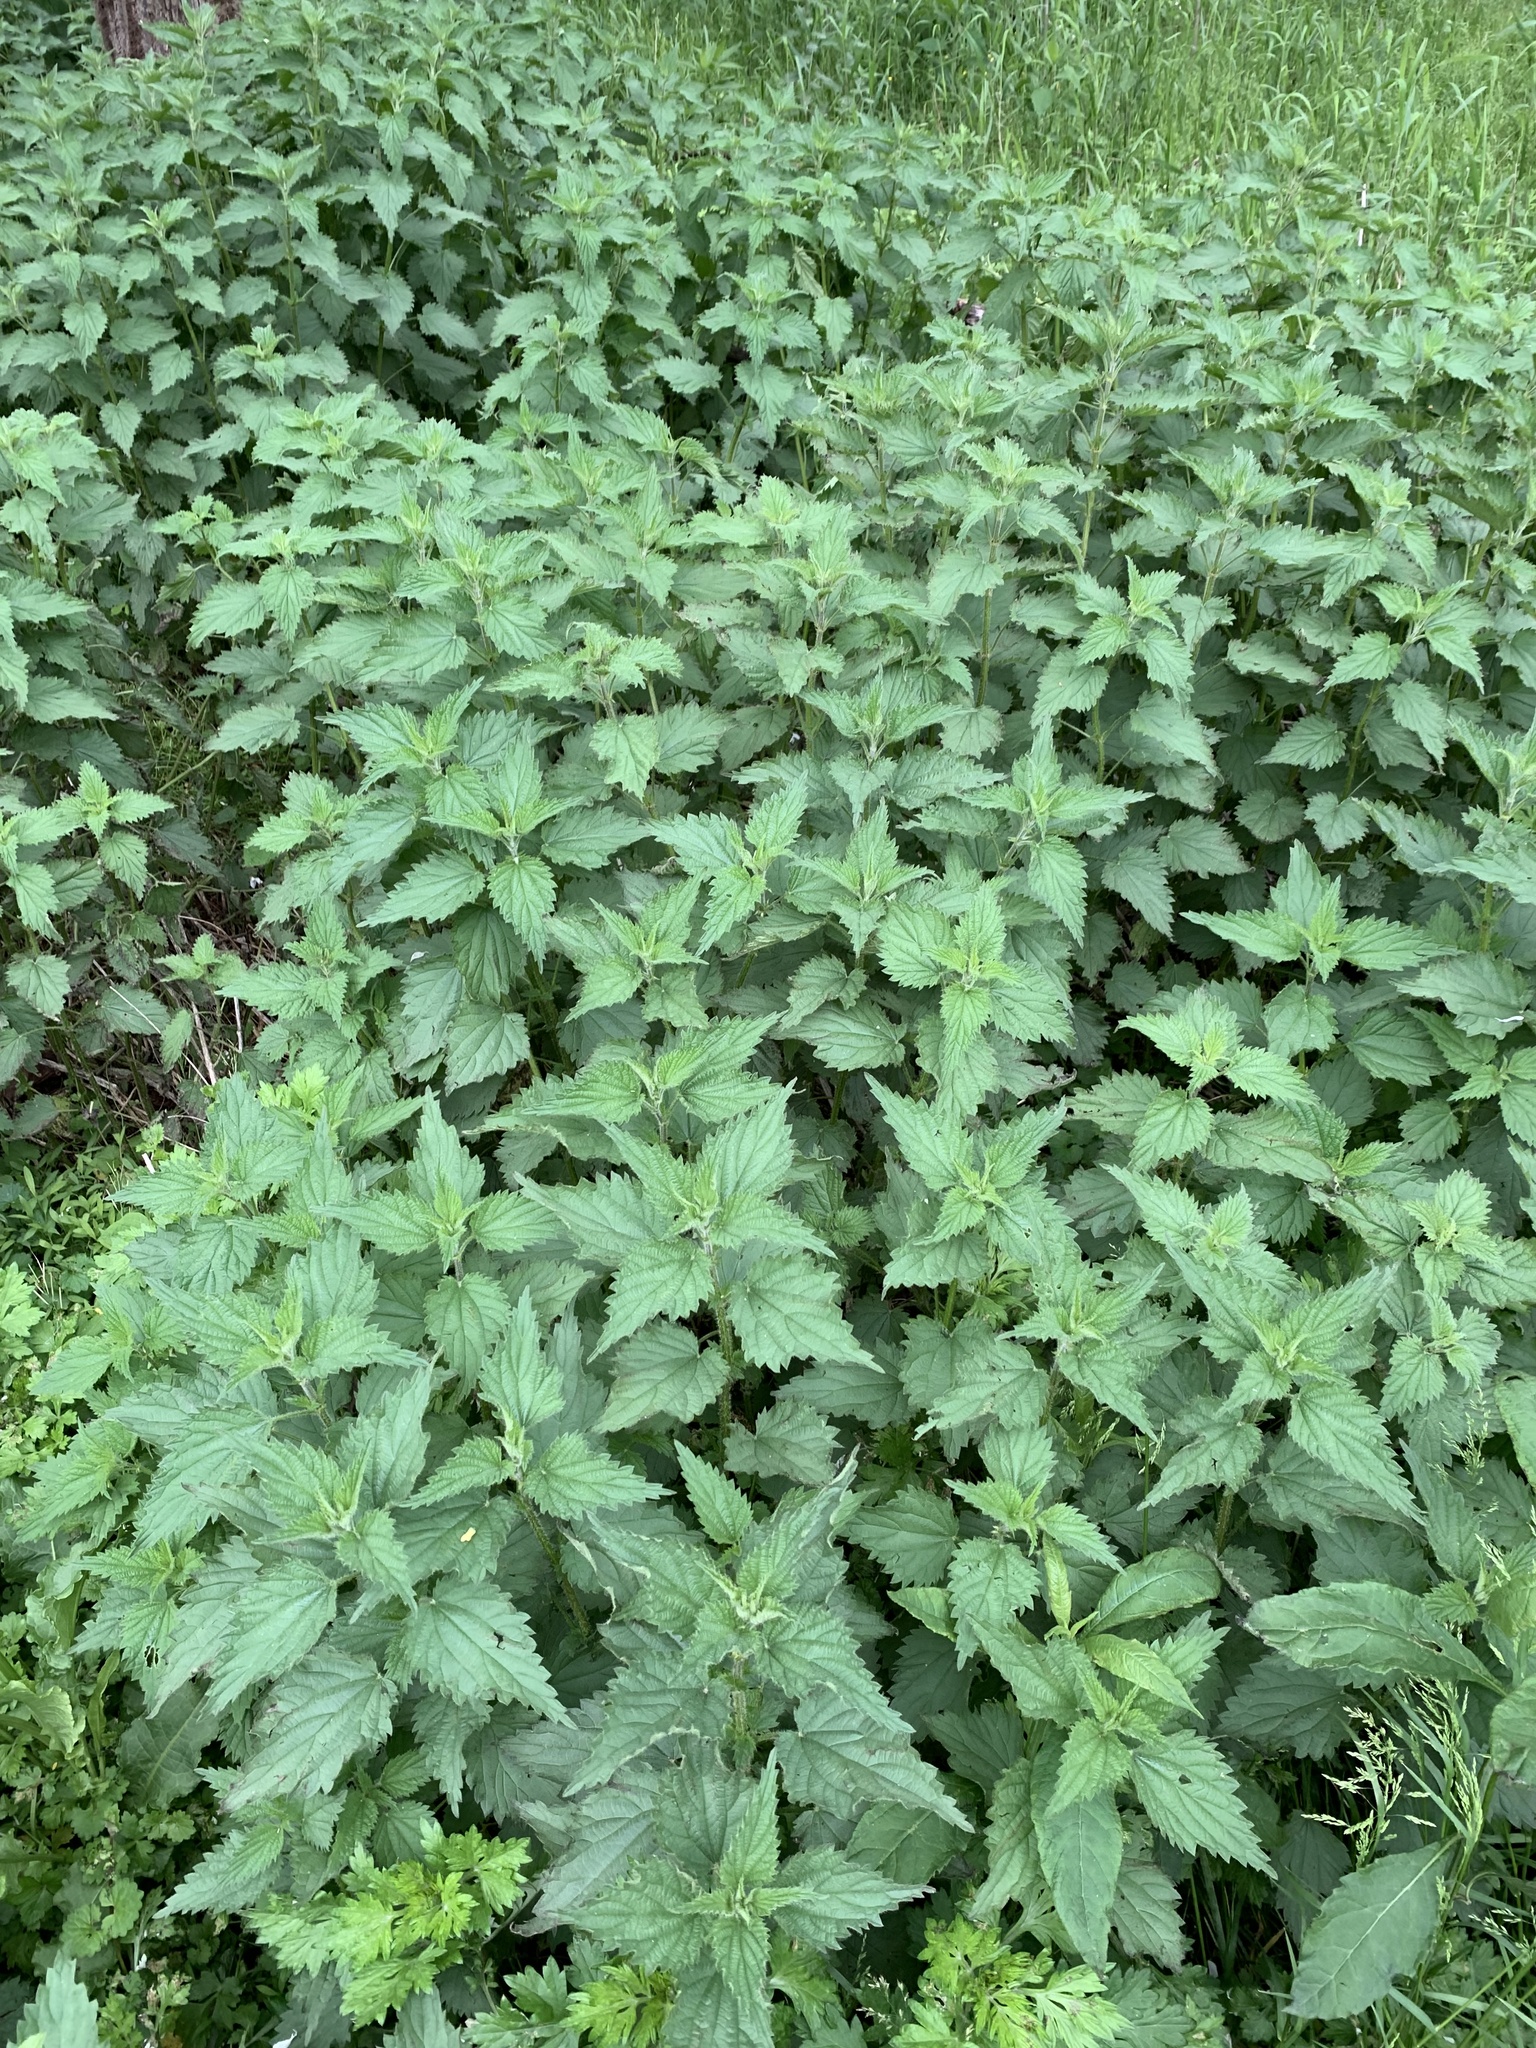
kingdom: Plantae
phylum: Tracheophyta
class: Magnoliopsida
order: Rosales
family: Urticaceae
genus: Urtica
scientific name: Urtica dioica
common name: Common nettle
